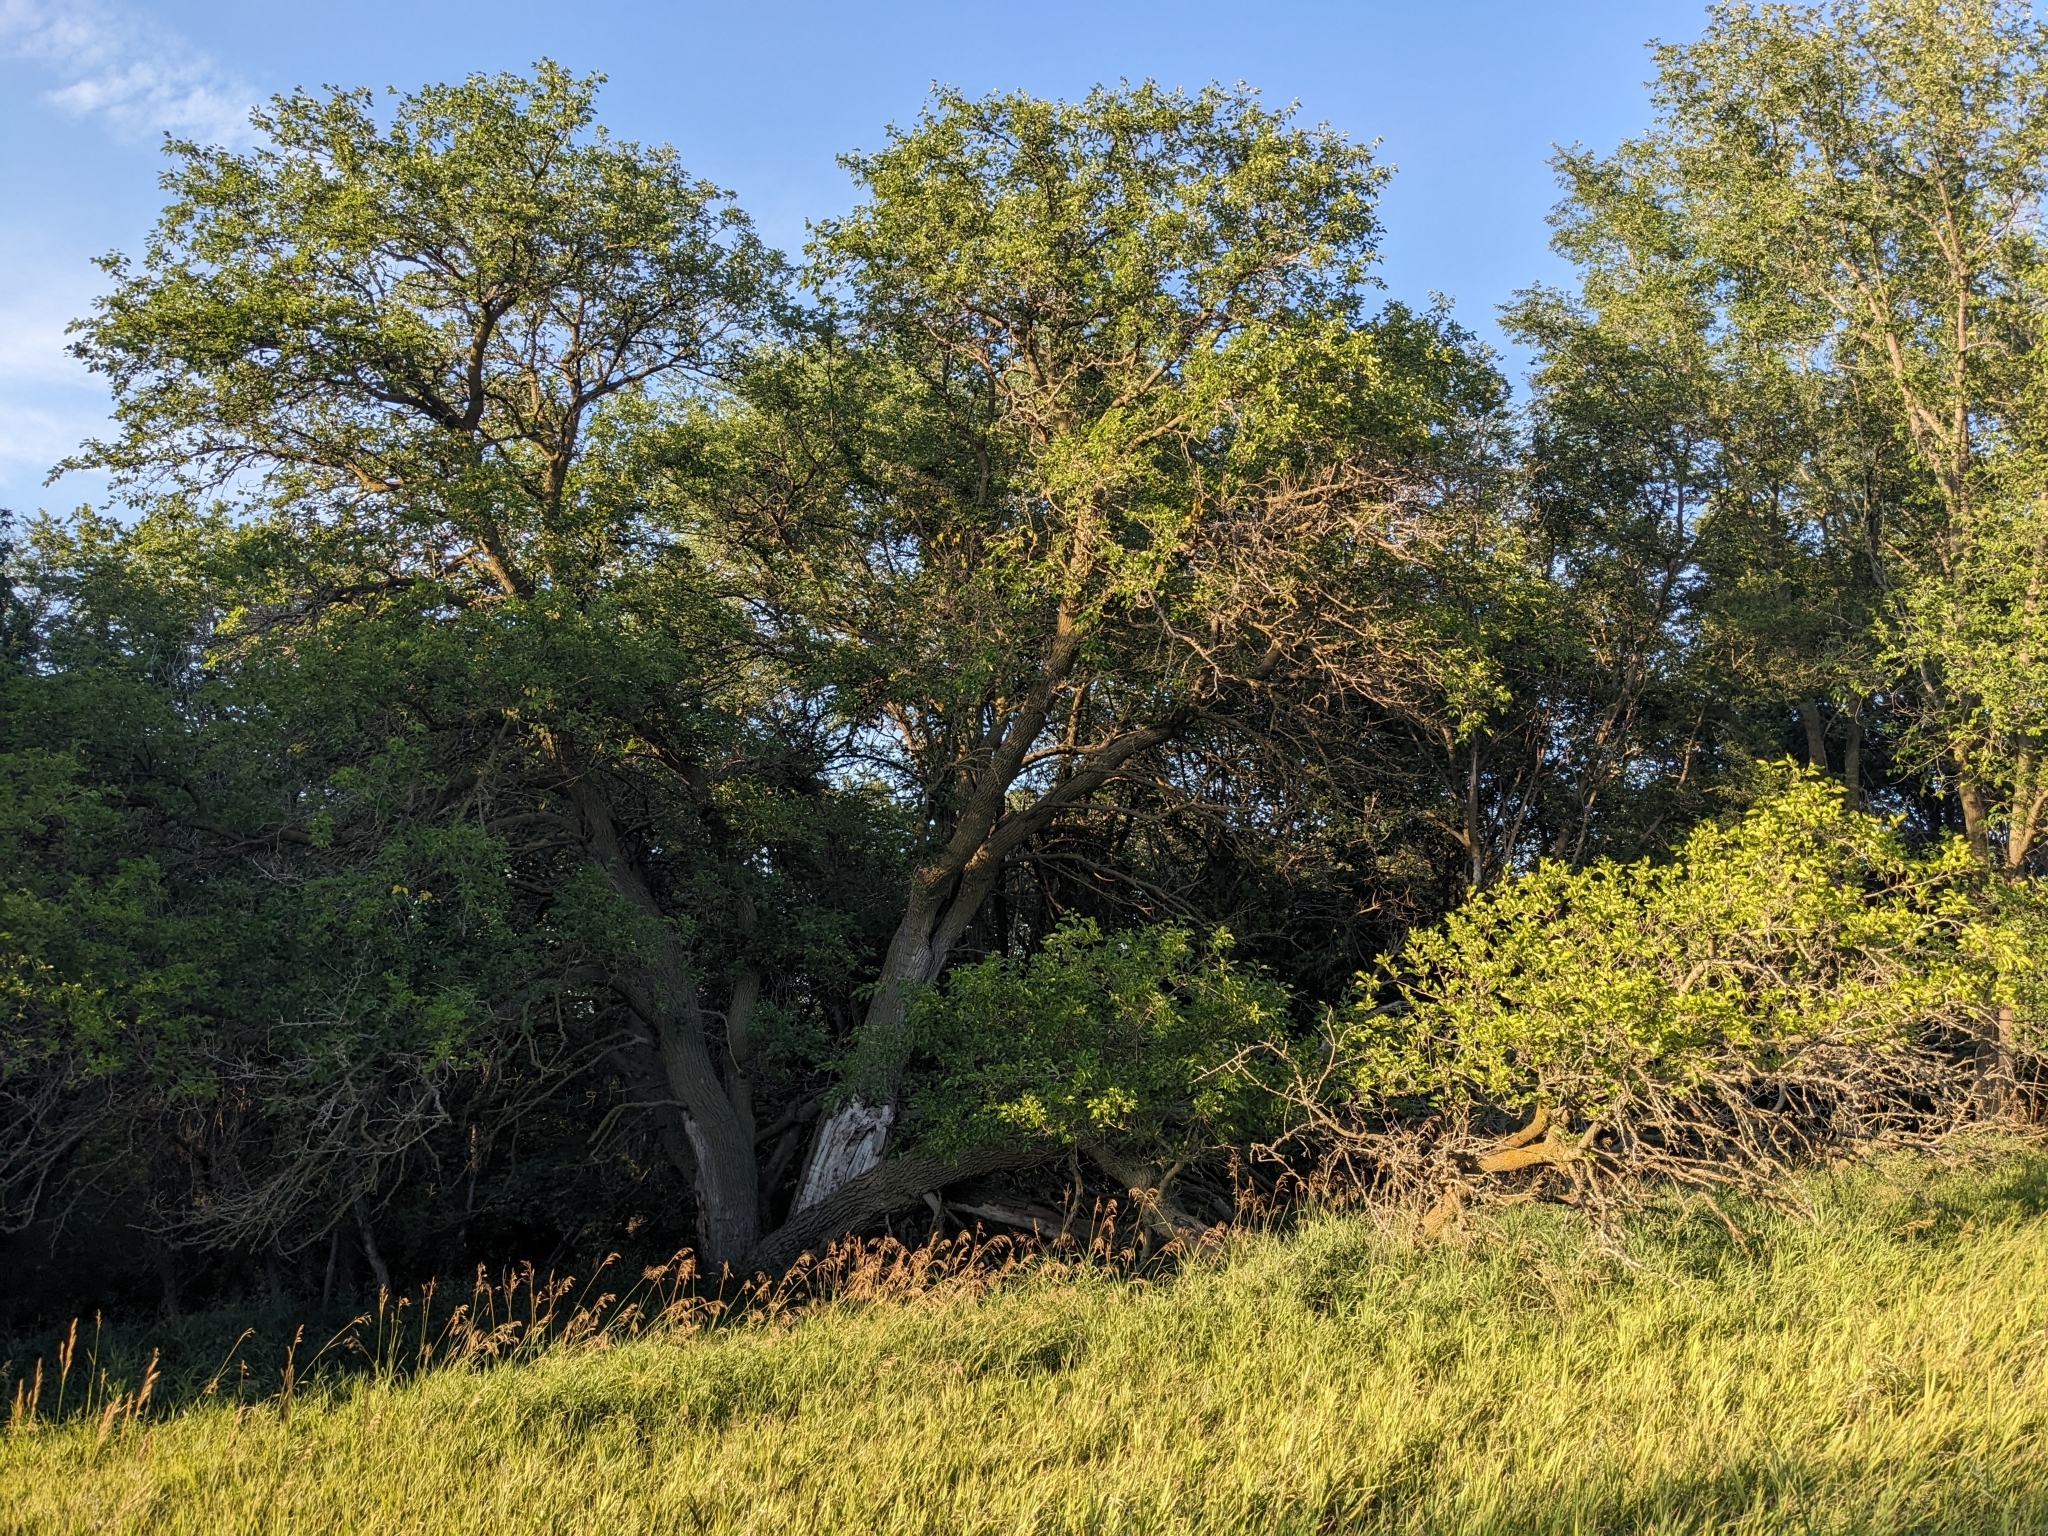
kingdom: Plantae
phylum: Tracheophyta
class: Magnoliopsida
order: Rosales
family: Moraceae
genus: Morus
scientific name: Morus alba
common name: White mulberry
